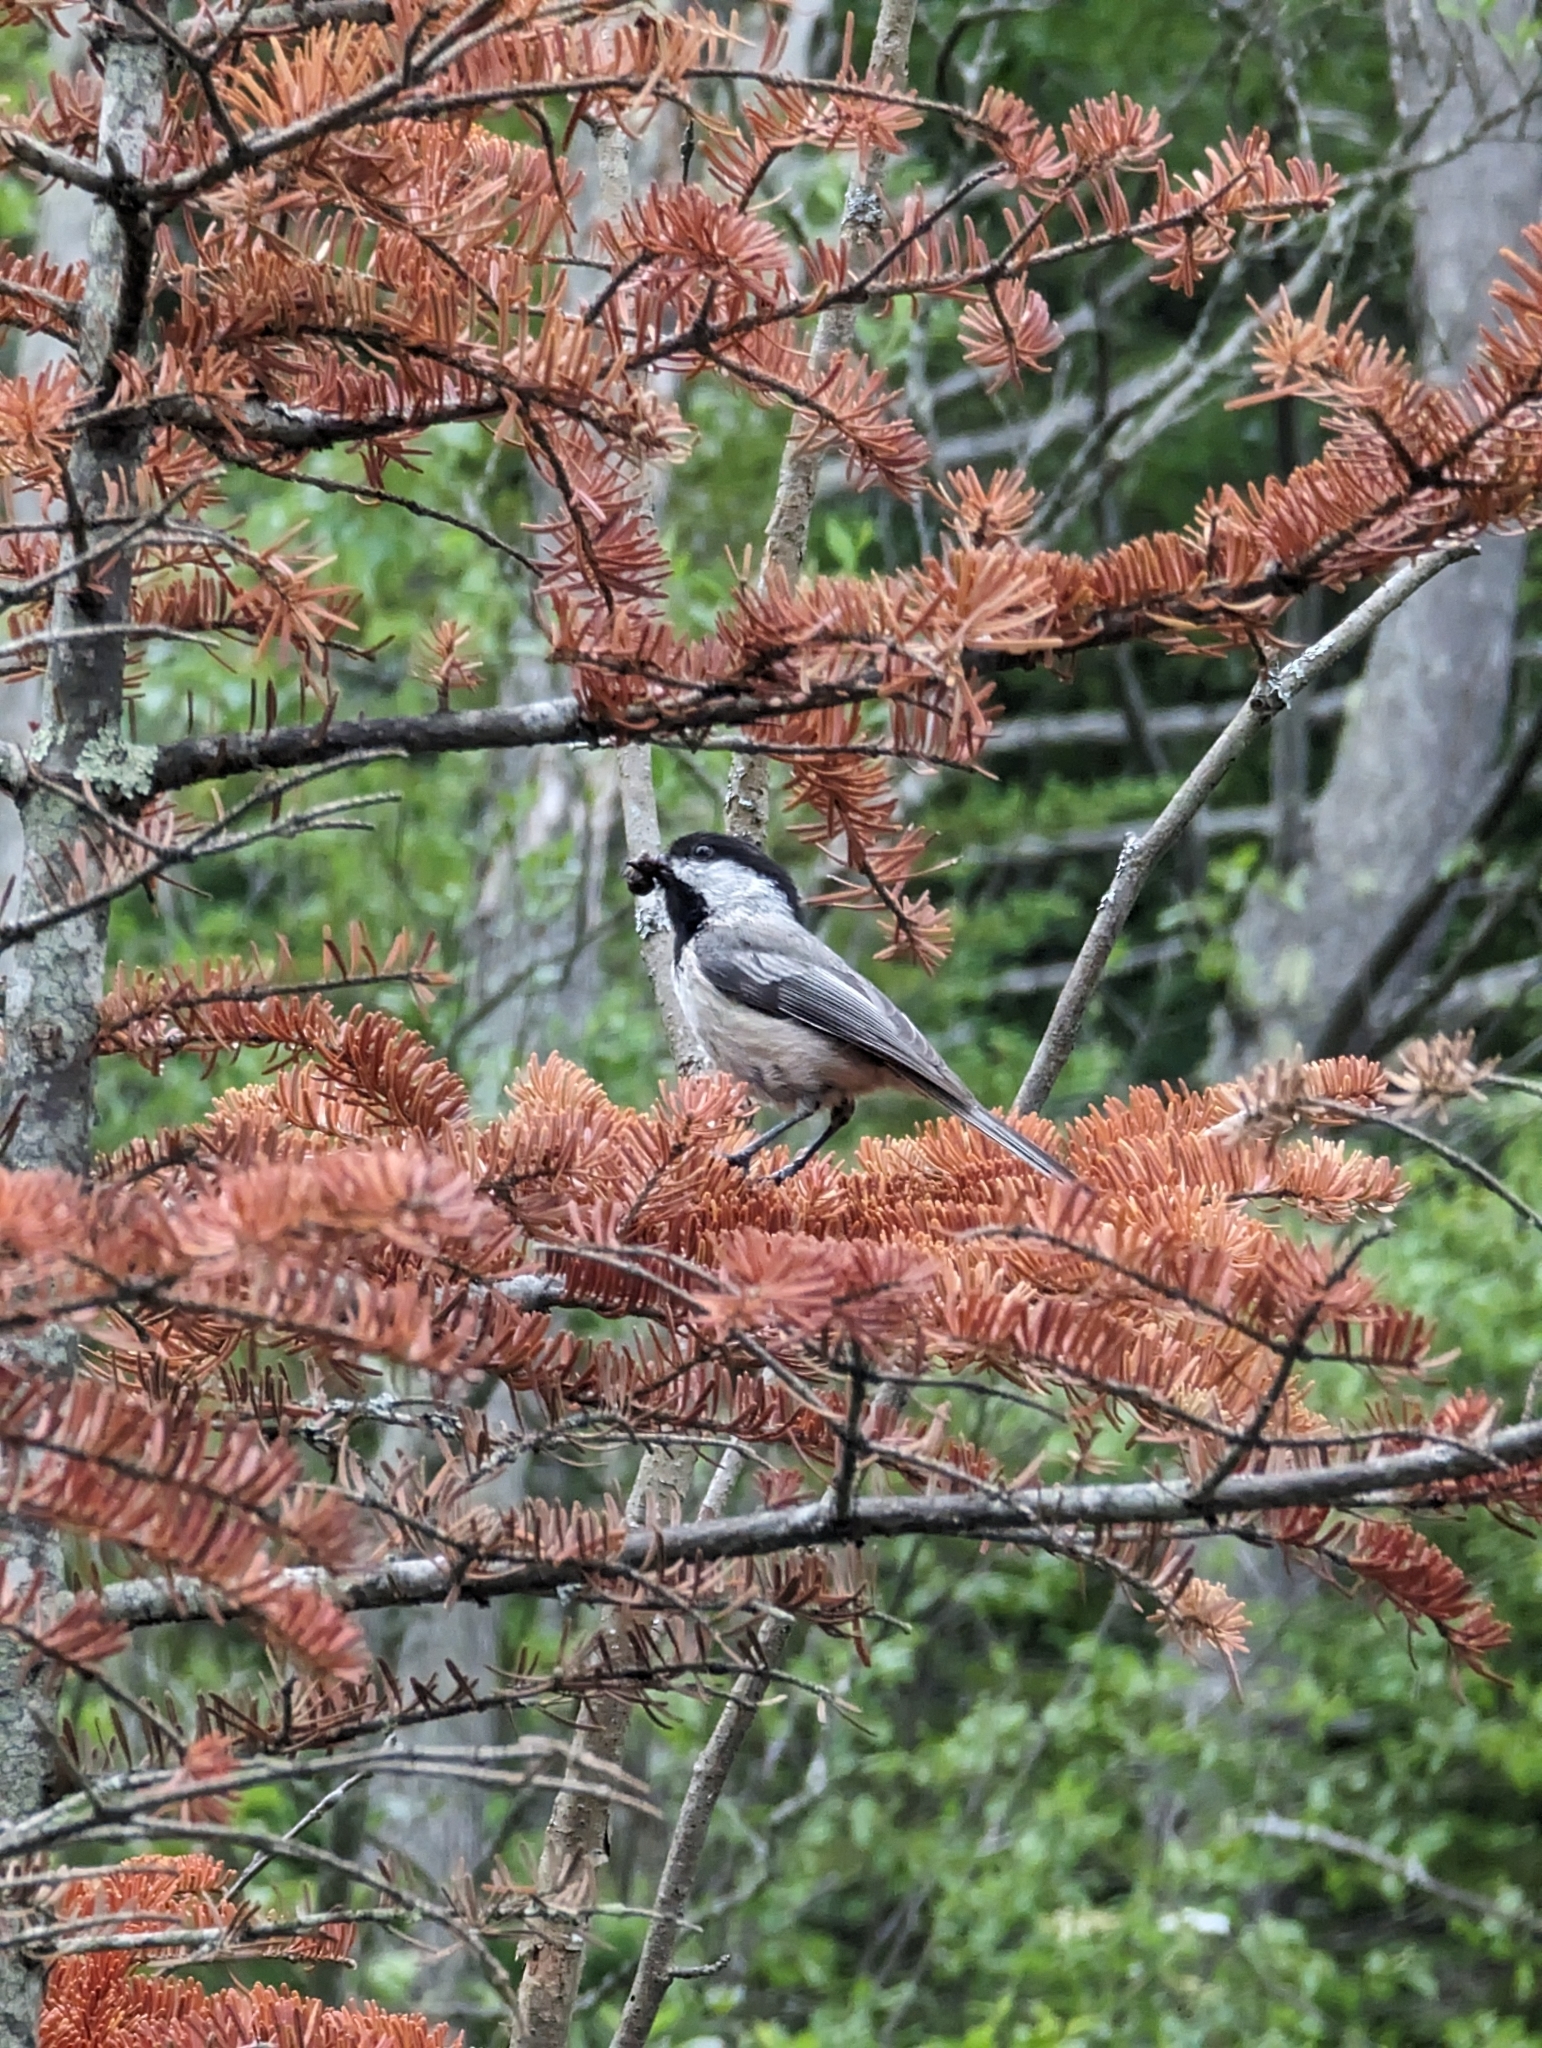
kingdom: Animalia
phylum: Chordata
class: Aves
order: Passeriformes
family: Paridae
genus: Poecile
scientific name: Poecile atricapillus
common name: Black-capped chickadee
